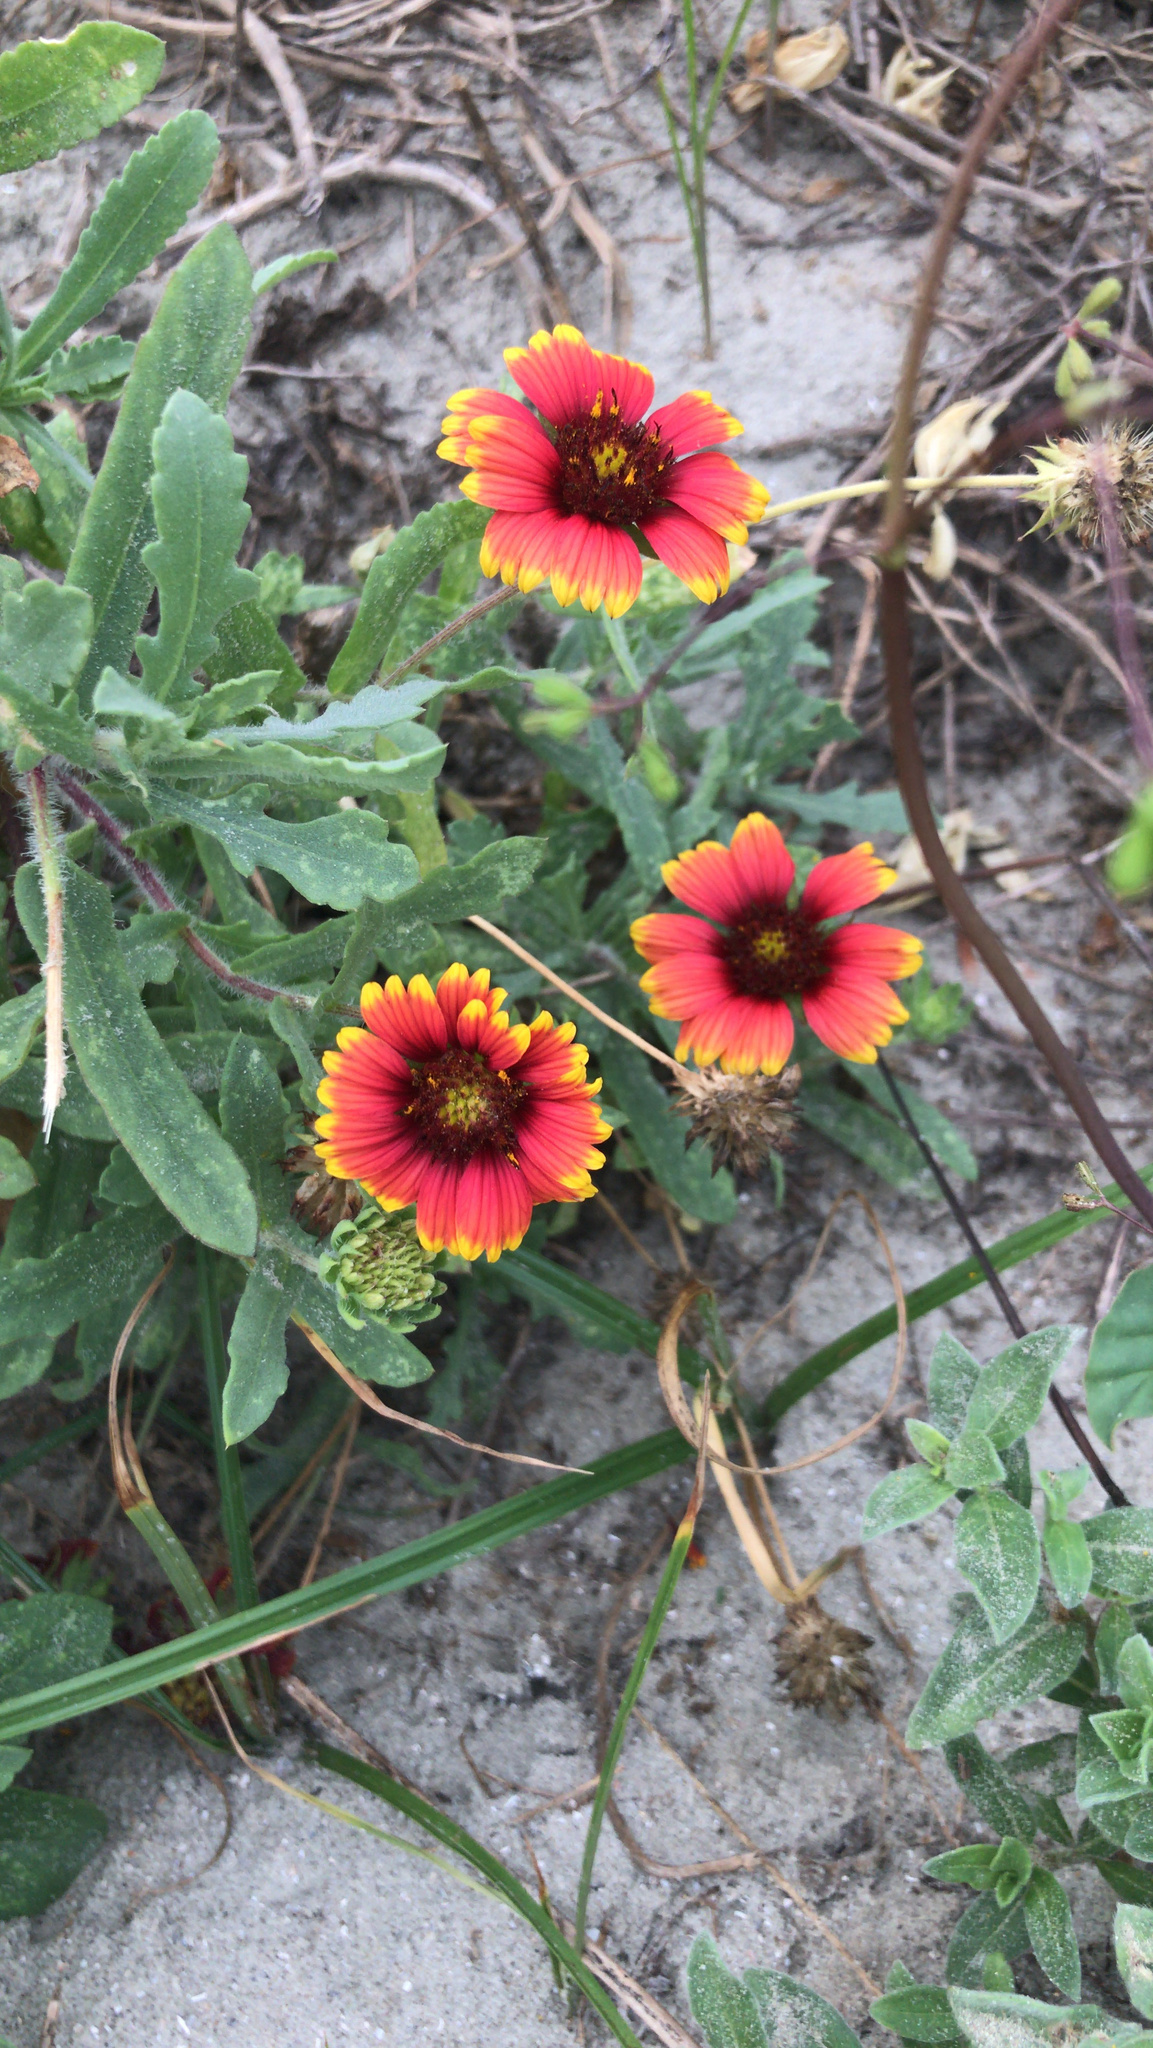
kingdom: Plantae
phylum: Tracheophyta
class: Magnoliopsida
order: Asterales
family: Asteraceae
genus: Gaillardia
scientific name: Gaillardia pulchella
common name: Firewheel
